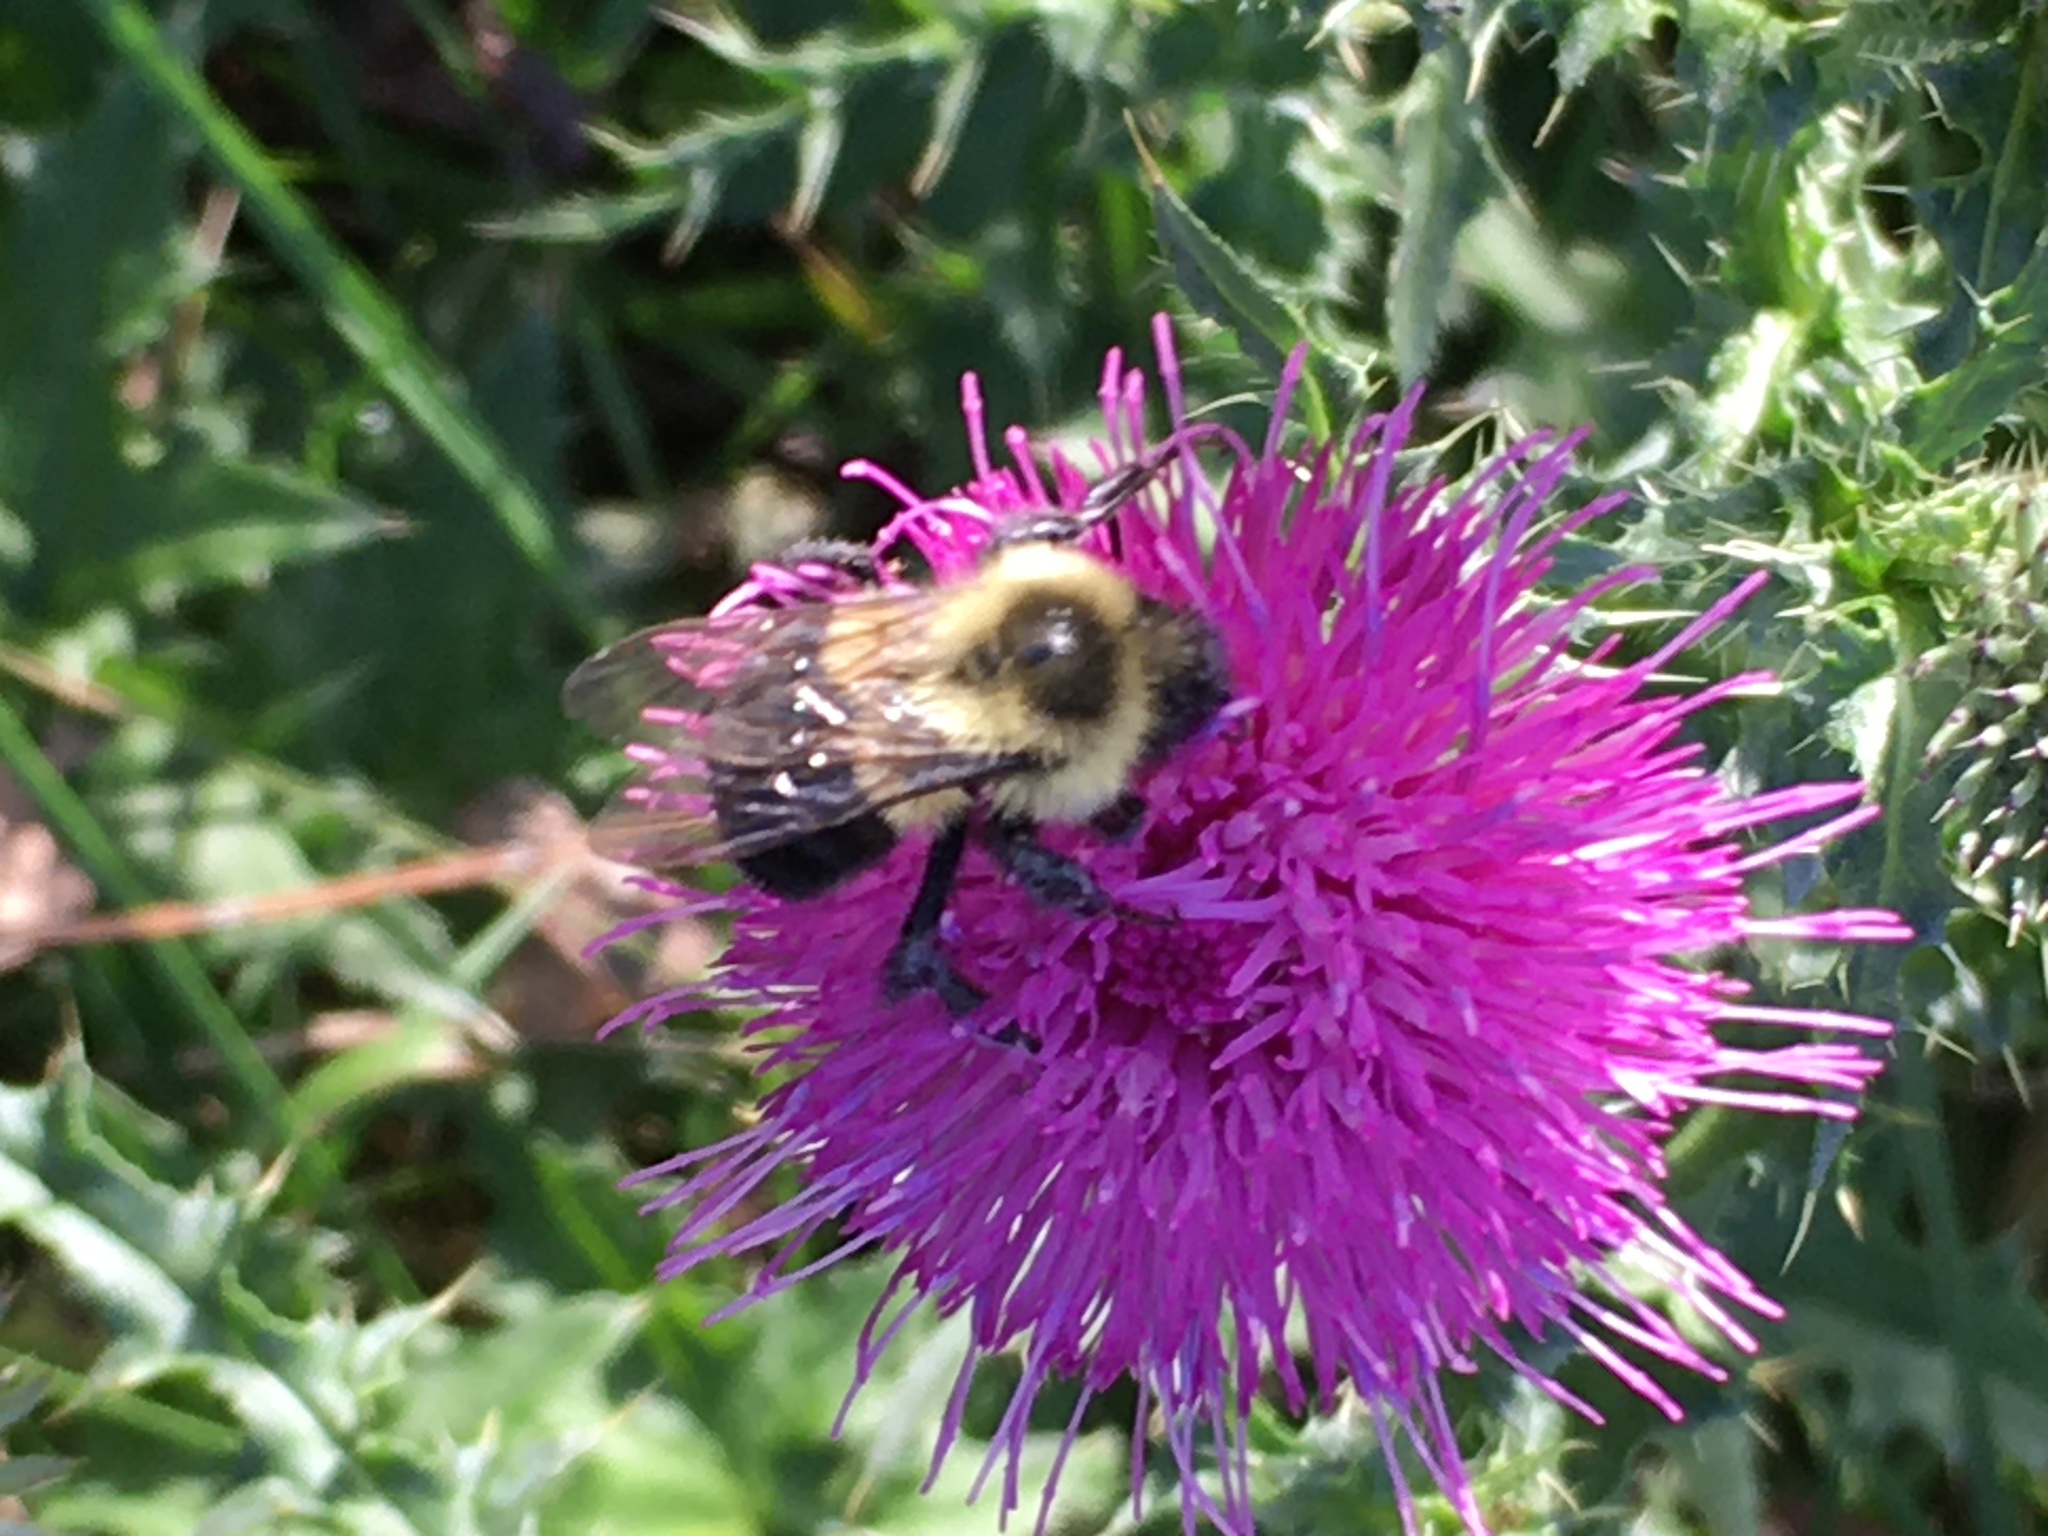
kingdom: Animalia
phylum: Arthropoda
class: Insecta
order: Hymenoptera
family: Apidae
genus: Bombus
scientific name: Bombus impatiens
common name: Common eastern bumble bee
